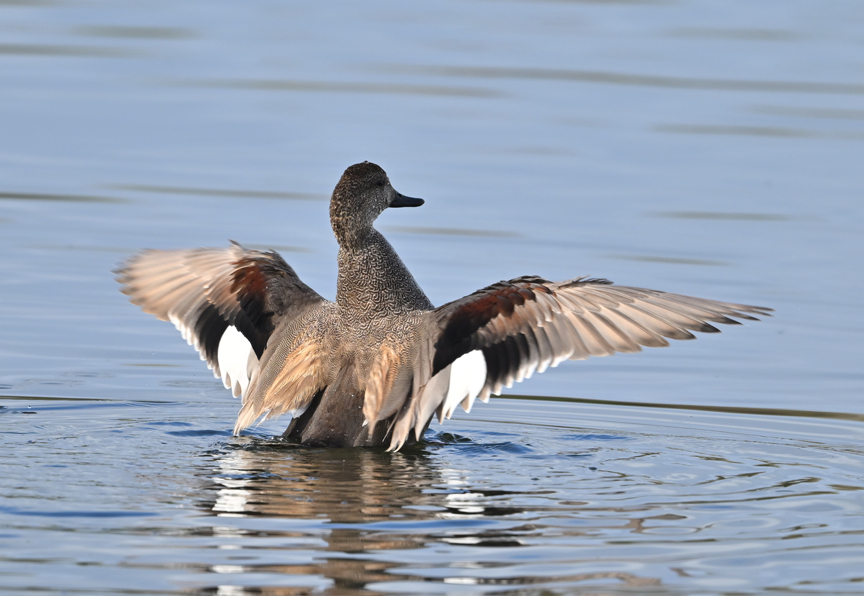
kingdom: Animalia
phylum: Chordata
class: Aves
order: Anseriformes
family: Anatidae
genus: Mareca
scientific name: Mareca strepera
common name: Gadwall
